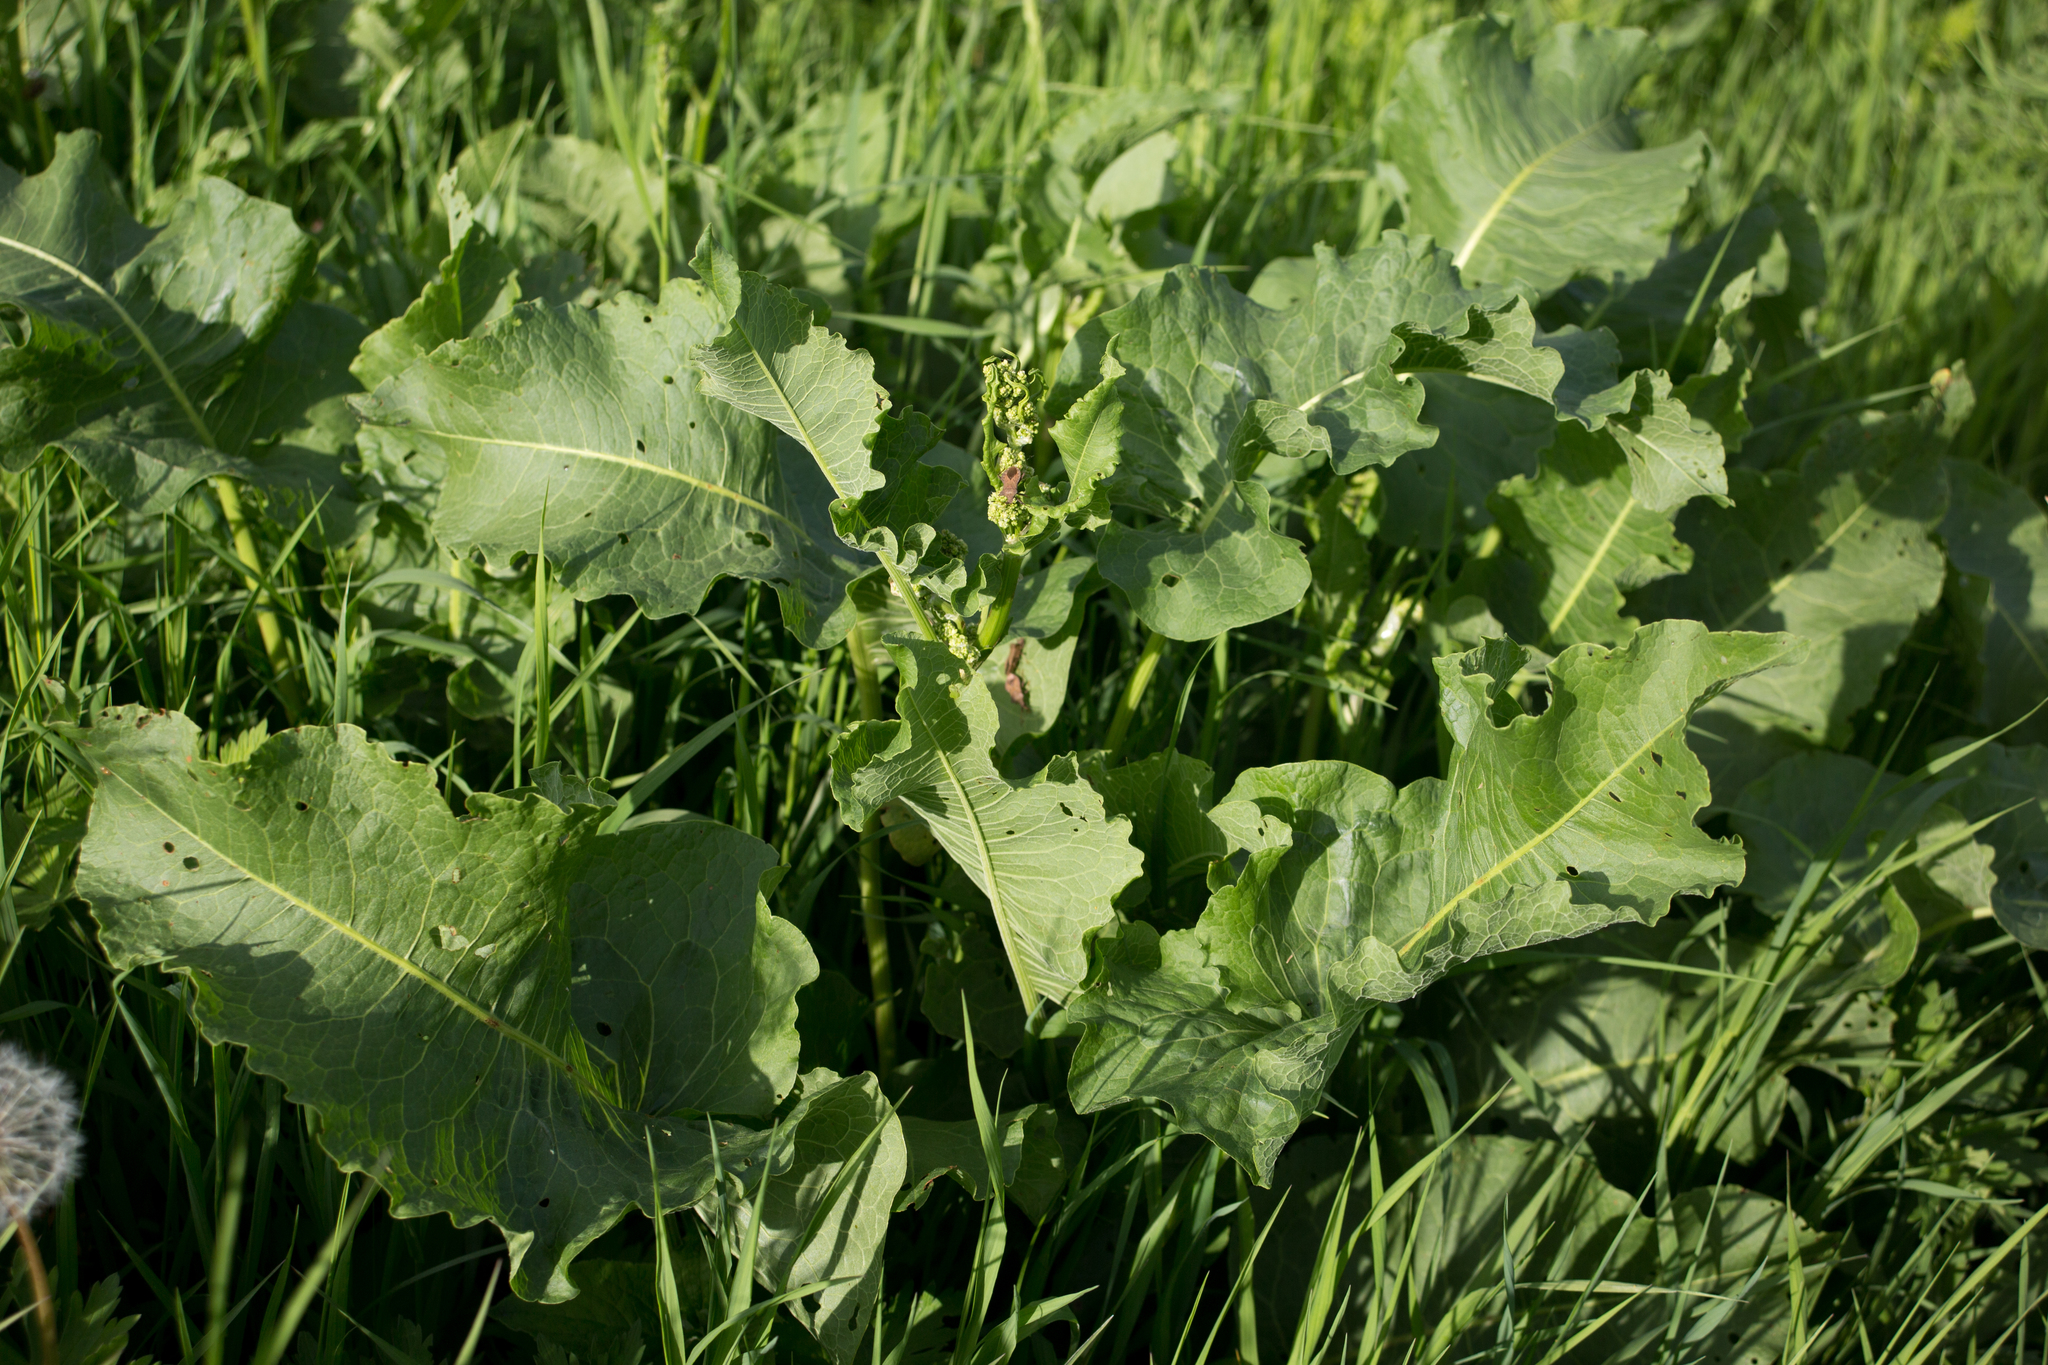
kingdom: Plantae
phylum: Tracheophyta
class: Magnoliopsida
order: Caryophyllales
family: Polygonaceae
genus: Rumex
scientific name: Rumex confertus
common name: Russian dock
